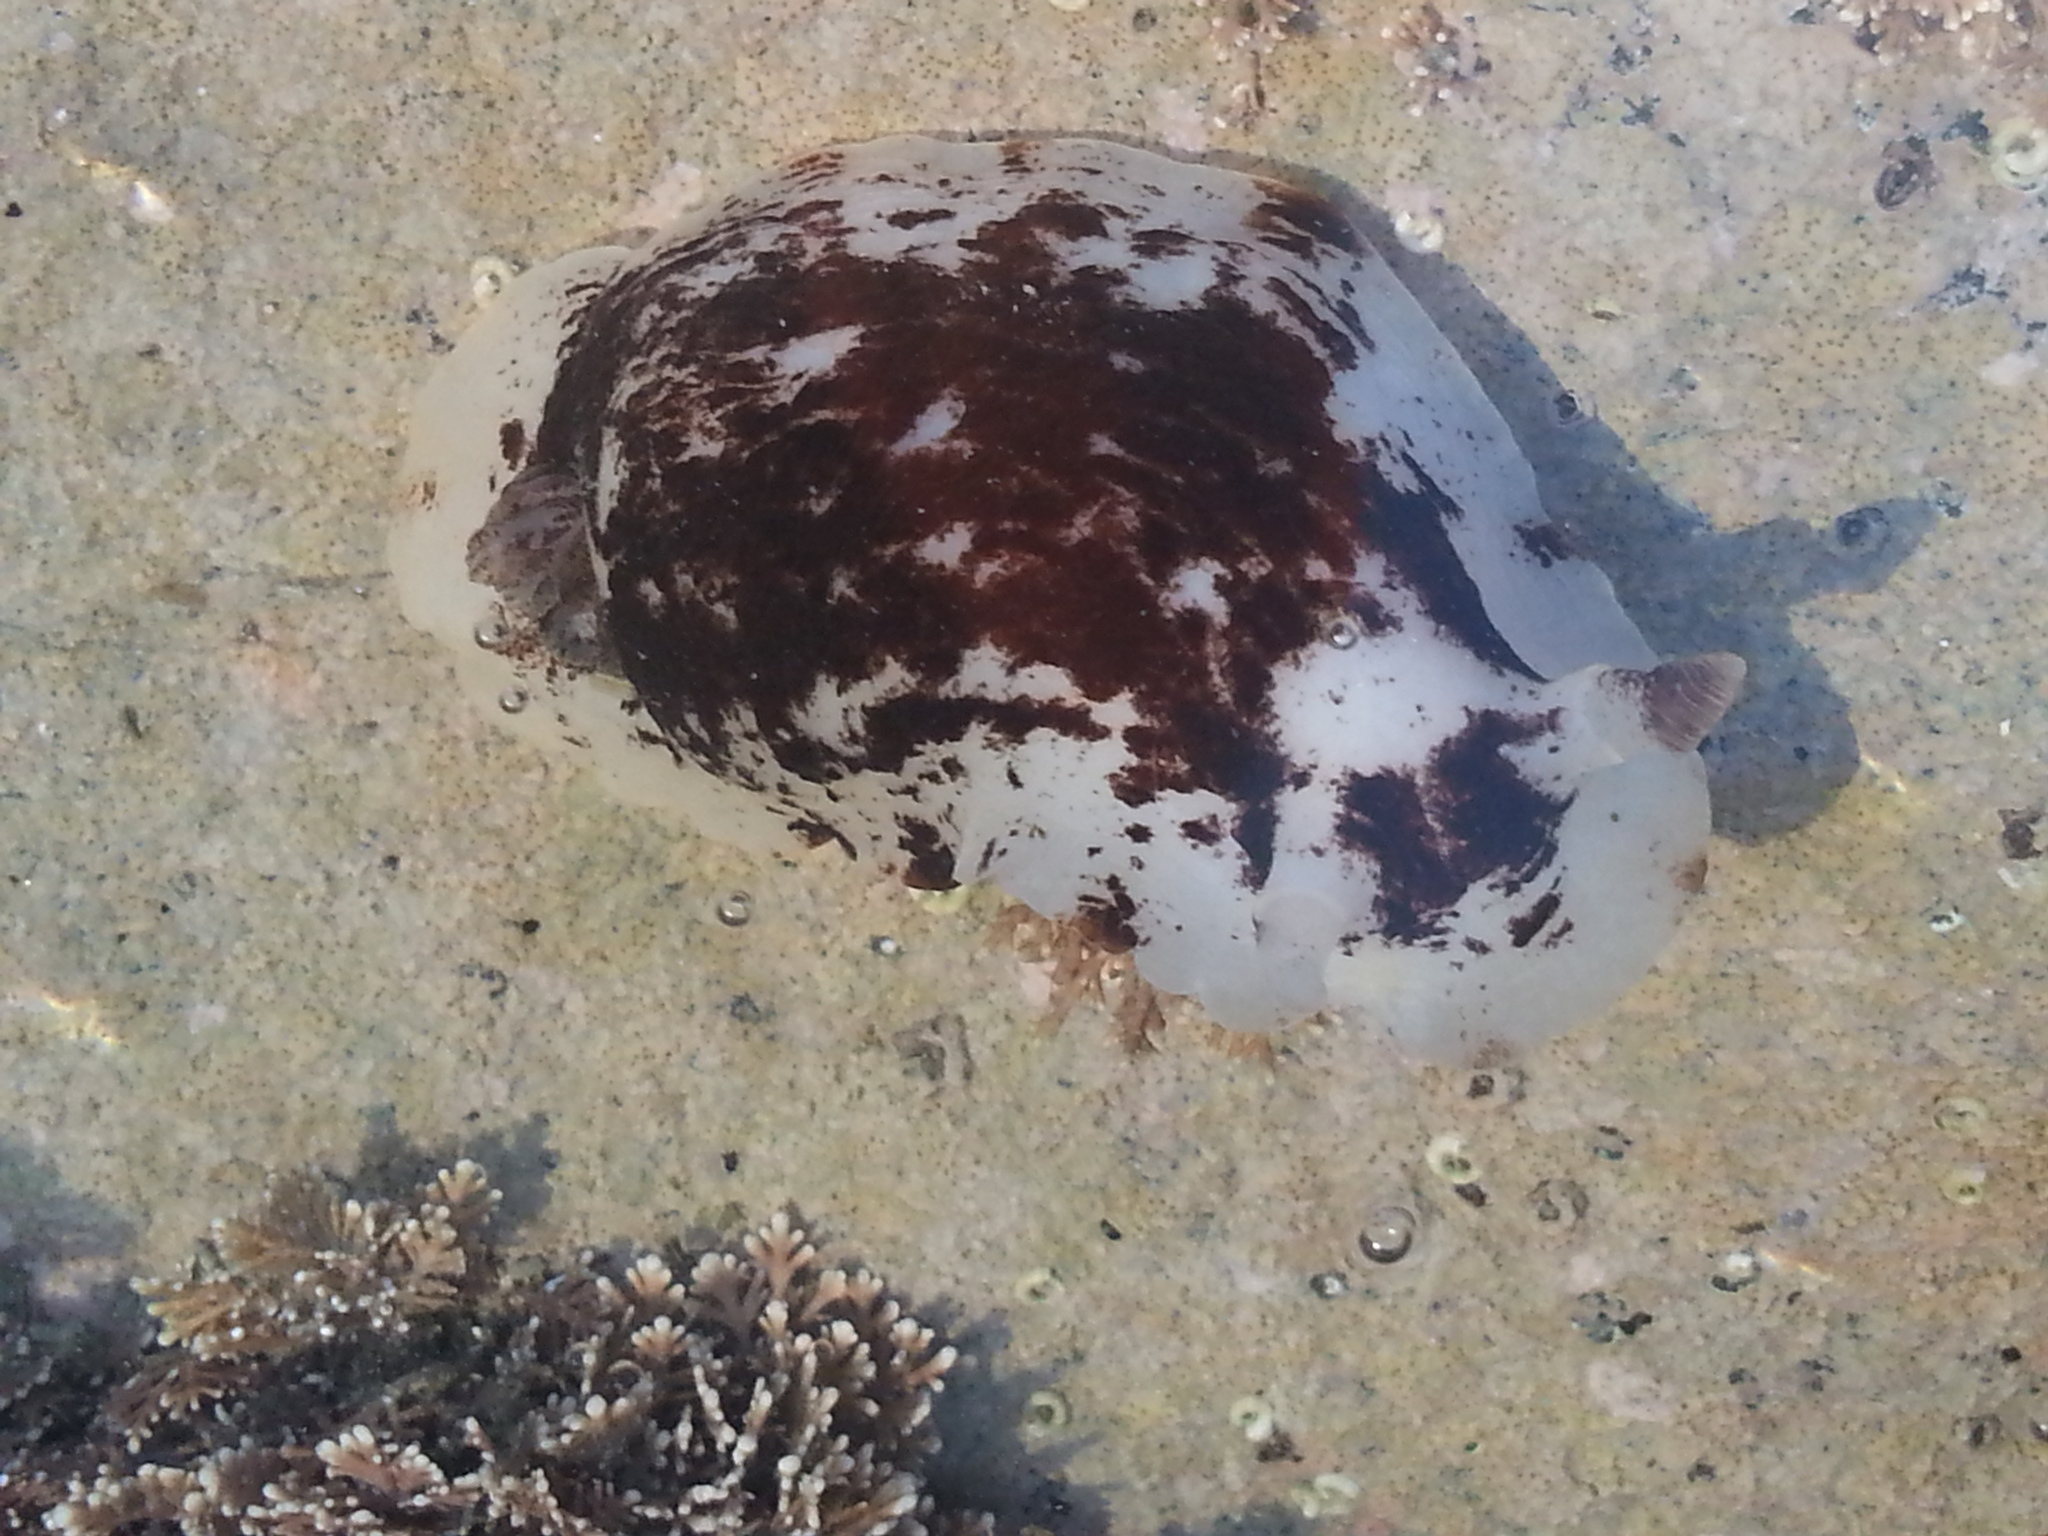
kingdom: Animalia
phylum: Mollusca
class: Gastropoda
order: Nudibranchia
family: Dorididae
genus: Aphelodoris
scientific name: Aphelodoris luctuosa
